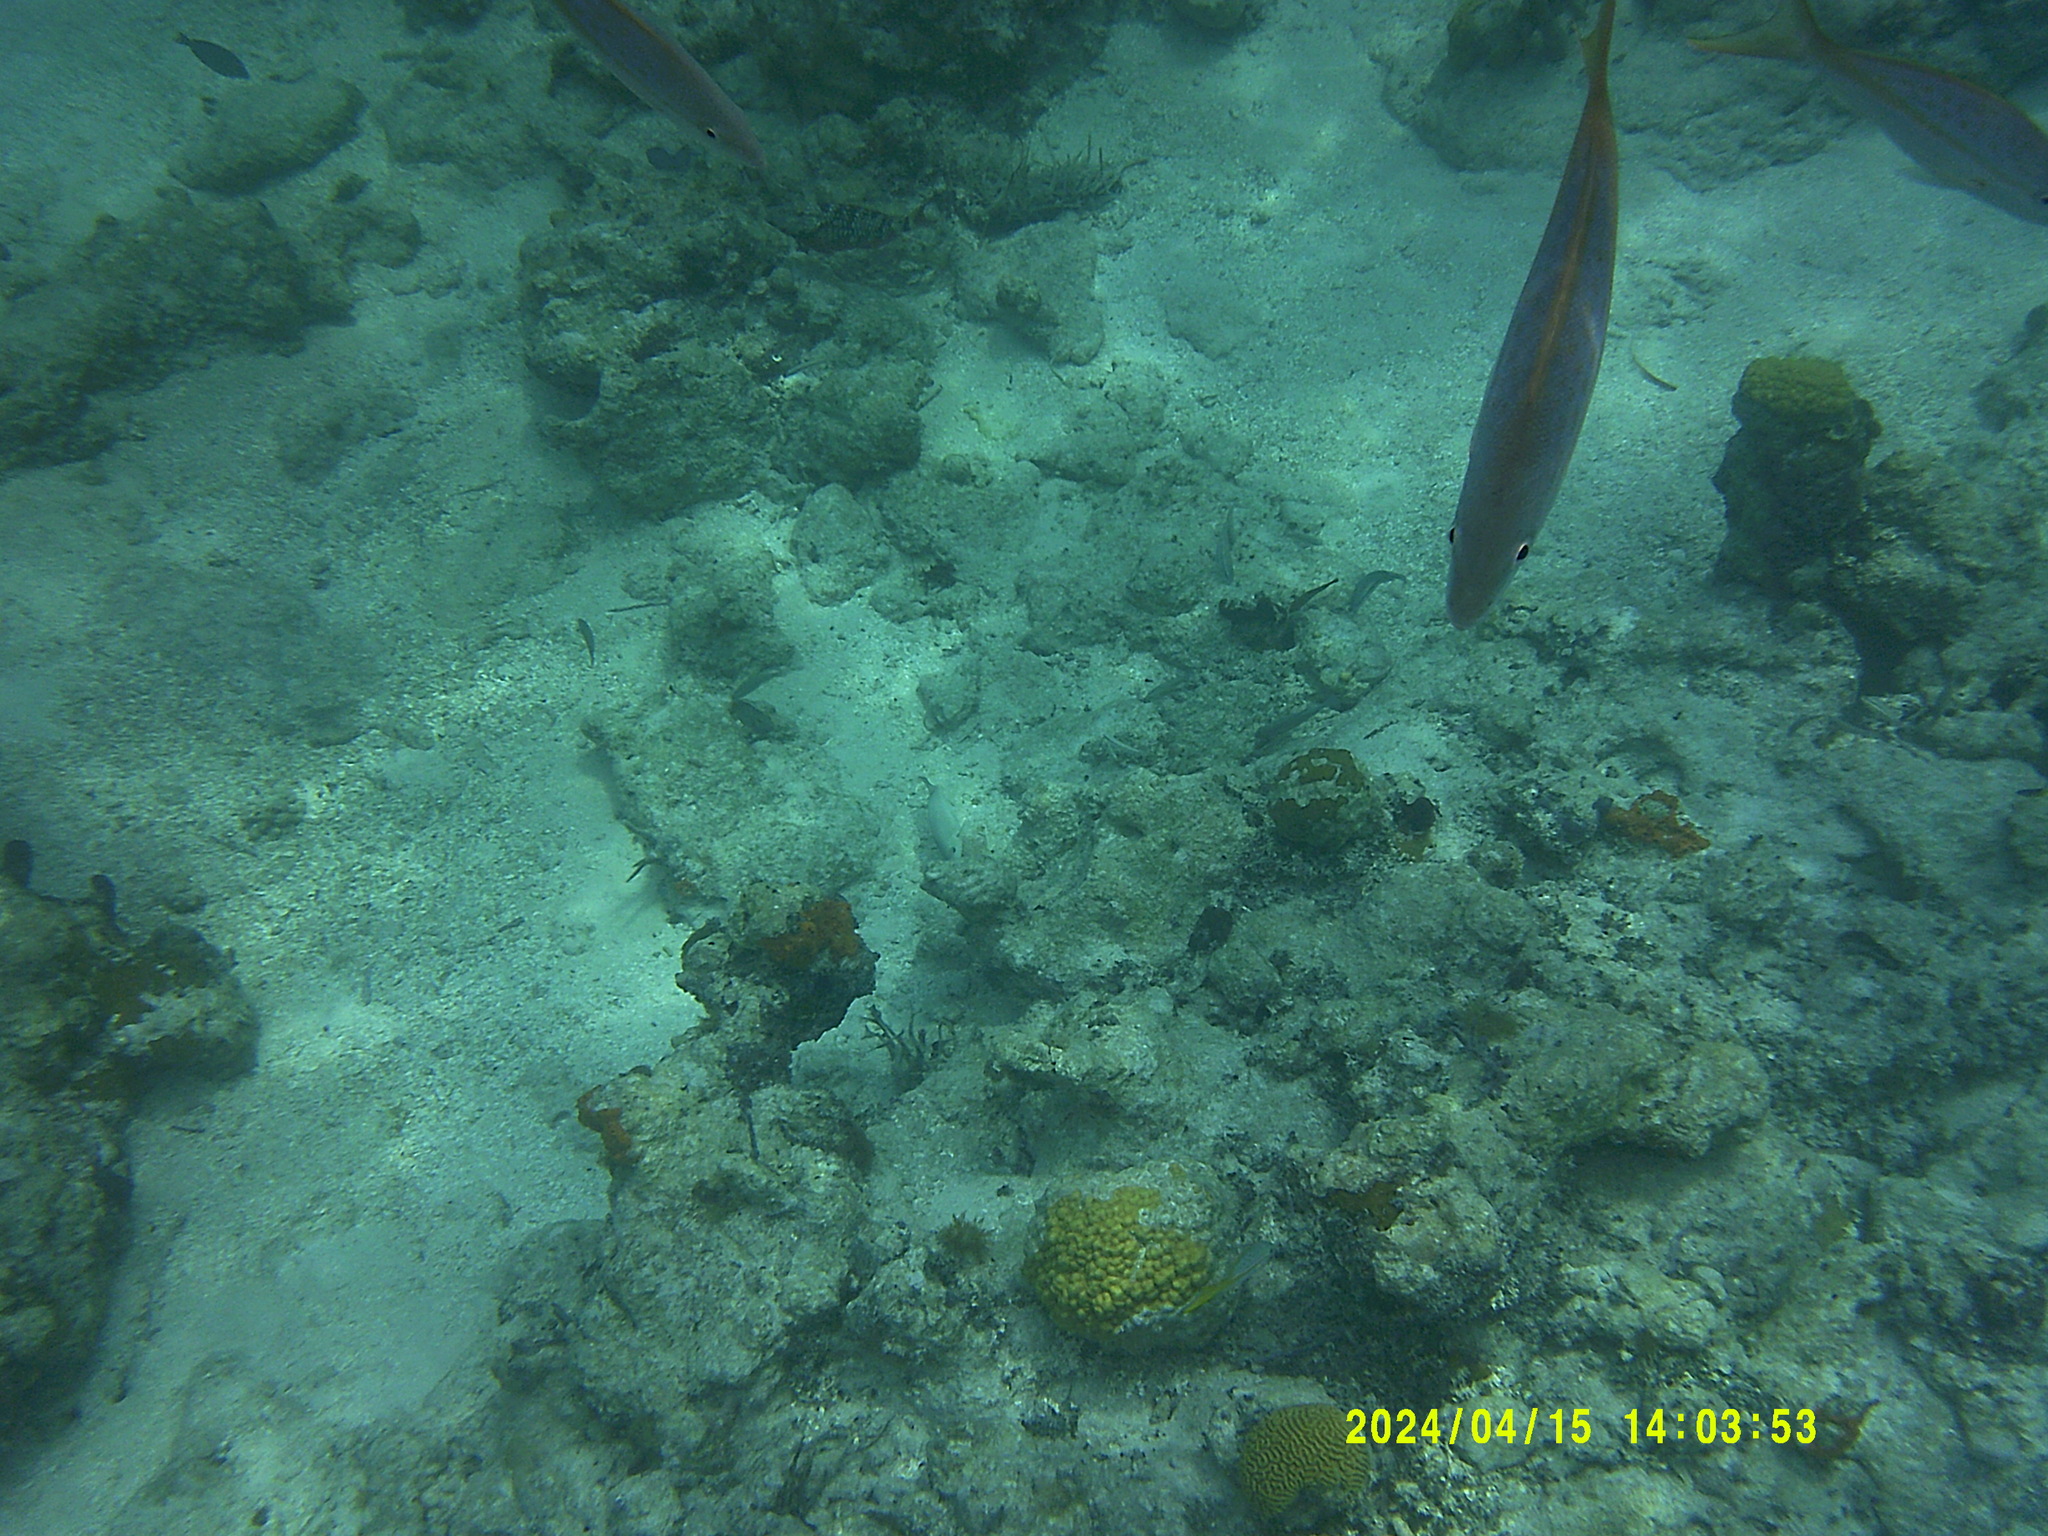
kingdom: Animalia
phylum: Chordata
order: Perciformes
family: Lutjanidae
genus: Ocyurus
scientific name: Ocyurus chrysurus
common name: Yellowtail snapper
